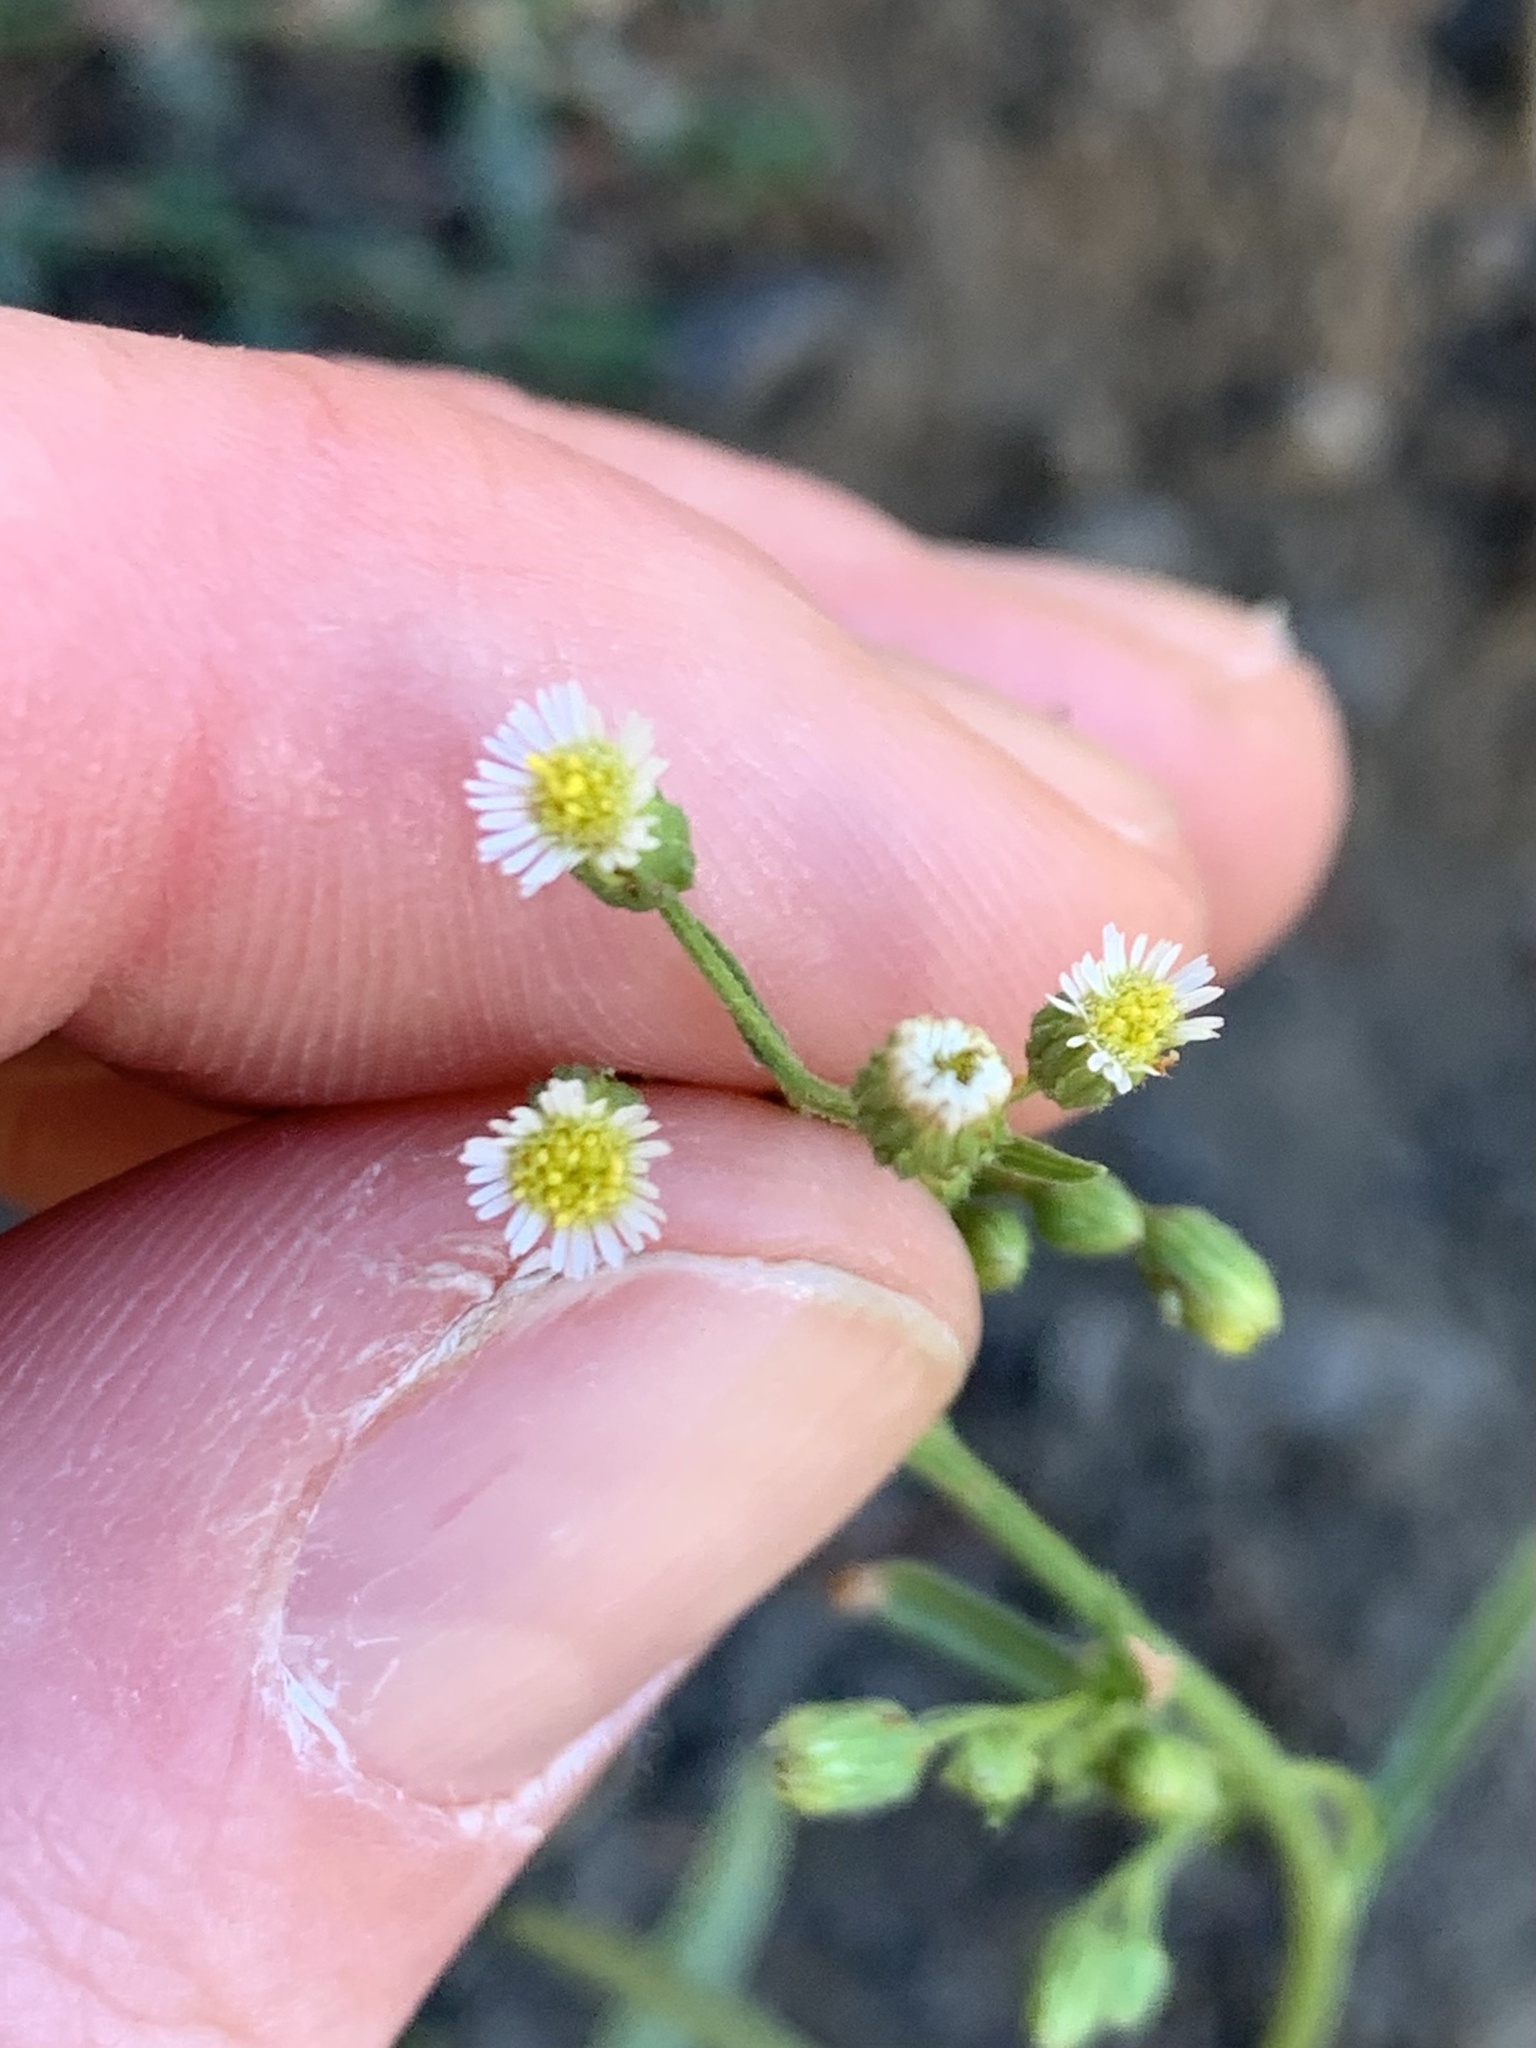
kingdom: Plantae
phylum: Tracheophyta
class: Magnoliopsida
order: Asterales
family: Asteraceae
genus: Erigeron
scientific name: Erigeron canadensis
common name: Canadian fleabane
